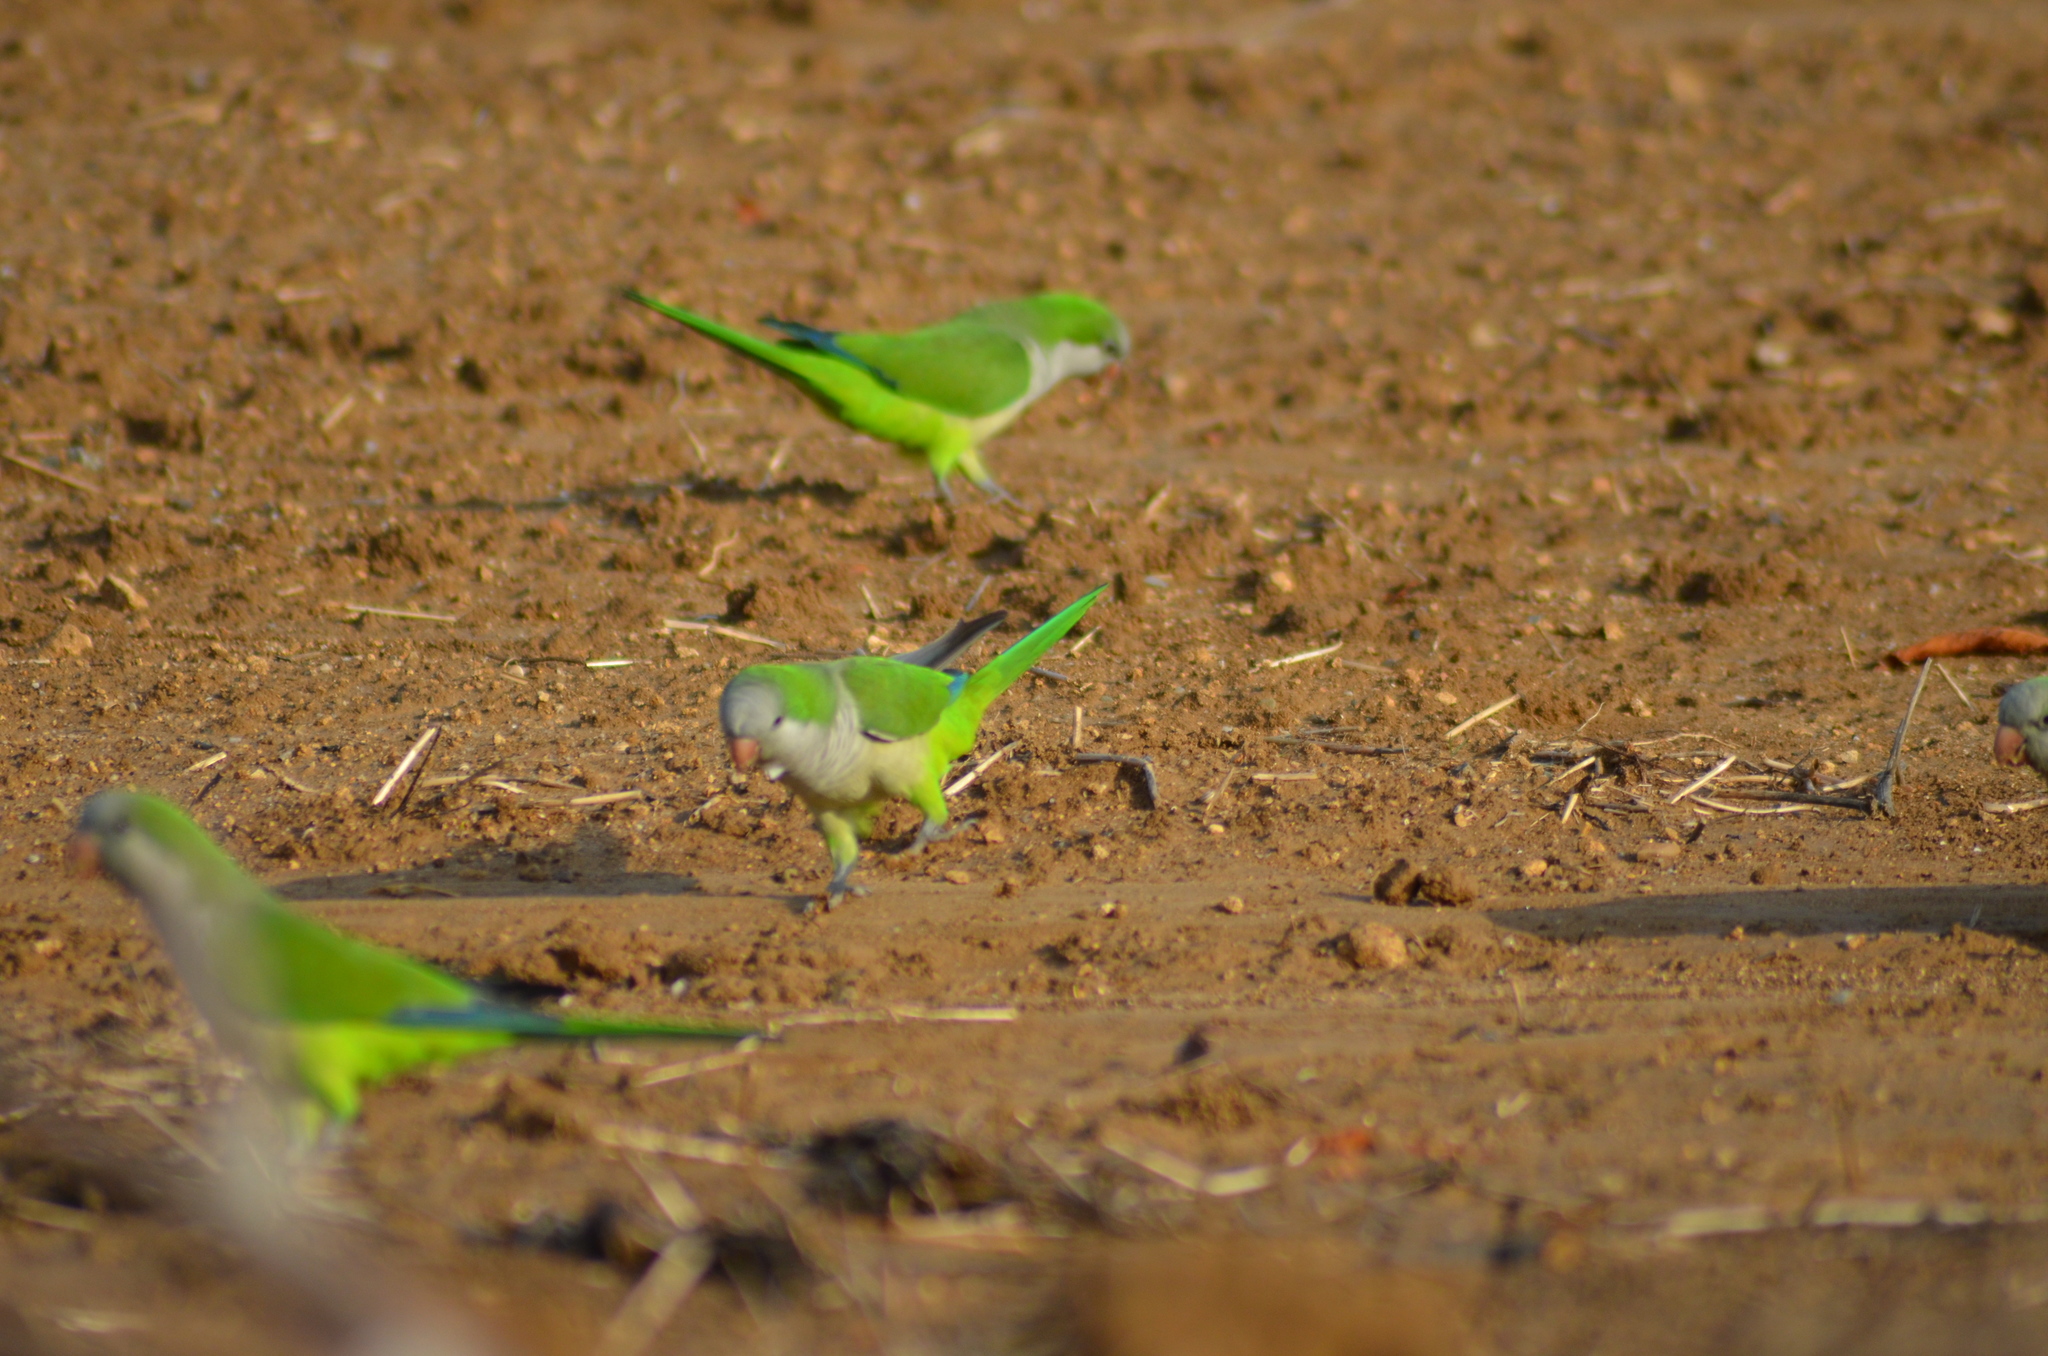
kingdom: Animalia
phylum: Chordata
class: Aves
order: Psittaciformes
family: Psittacidae
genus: Myiopsitta
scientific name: Myiopsitta monachus
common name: Monk parakeet
